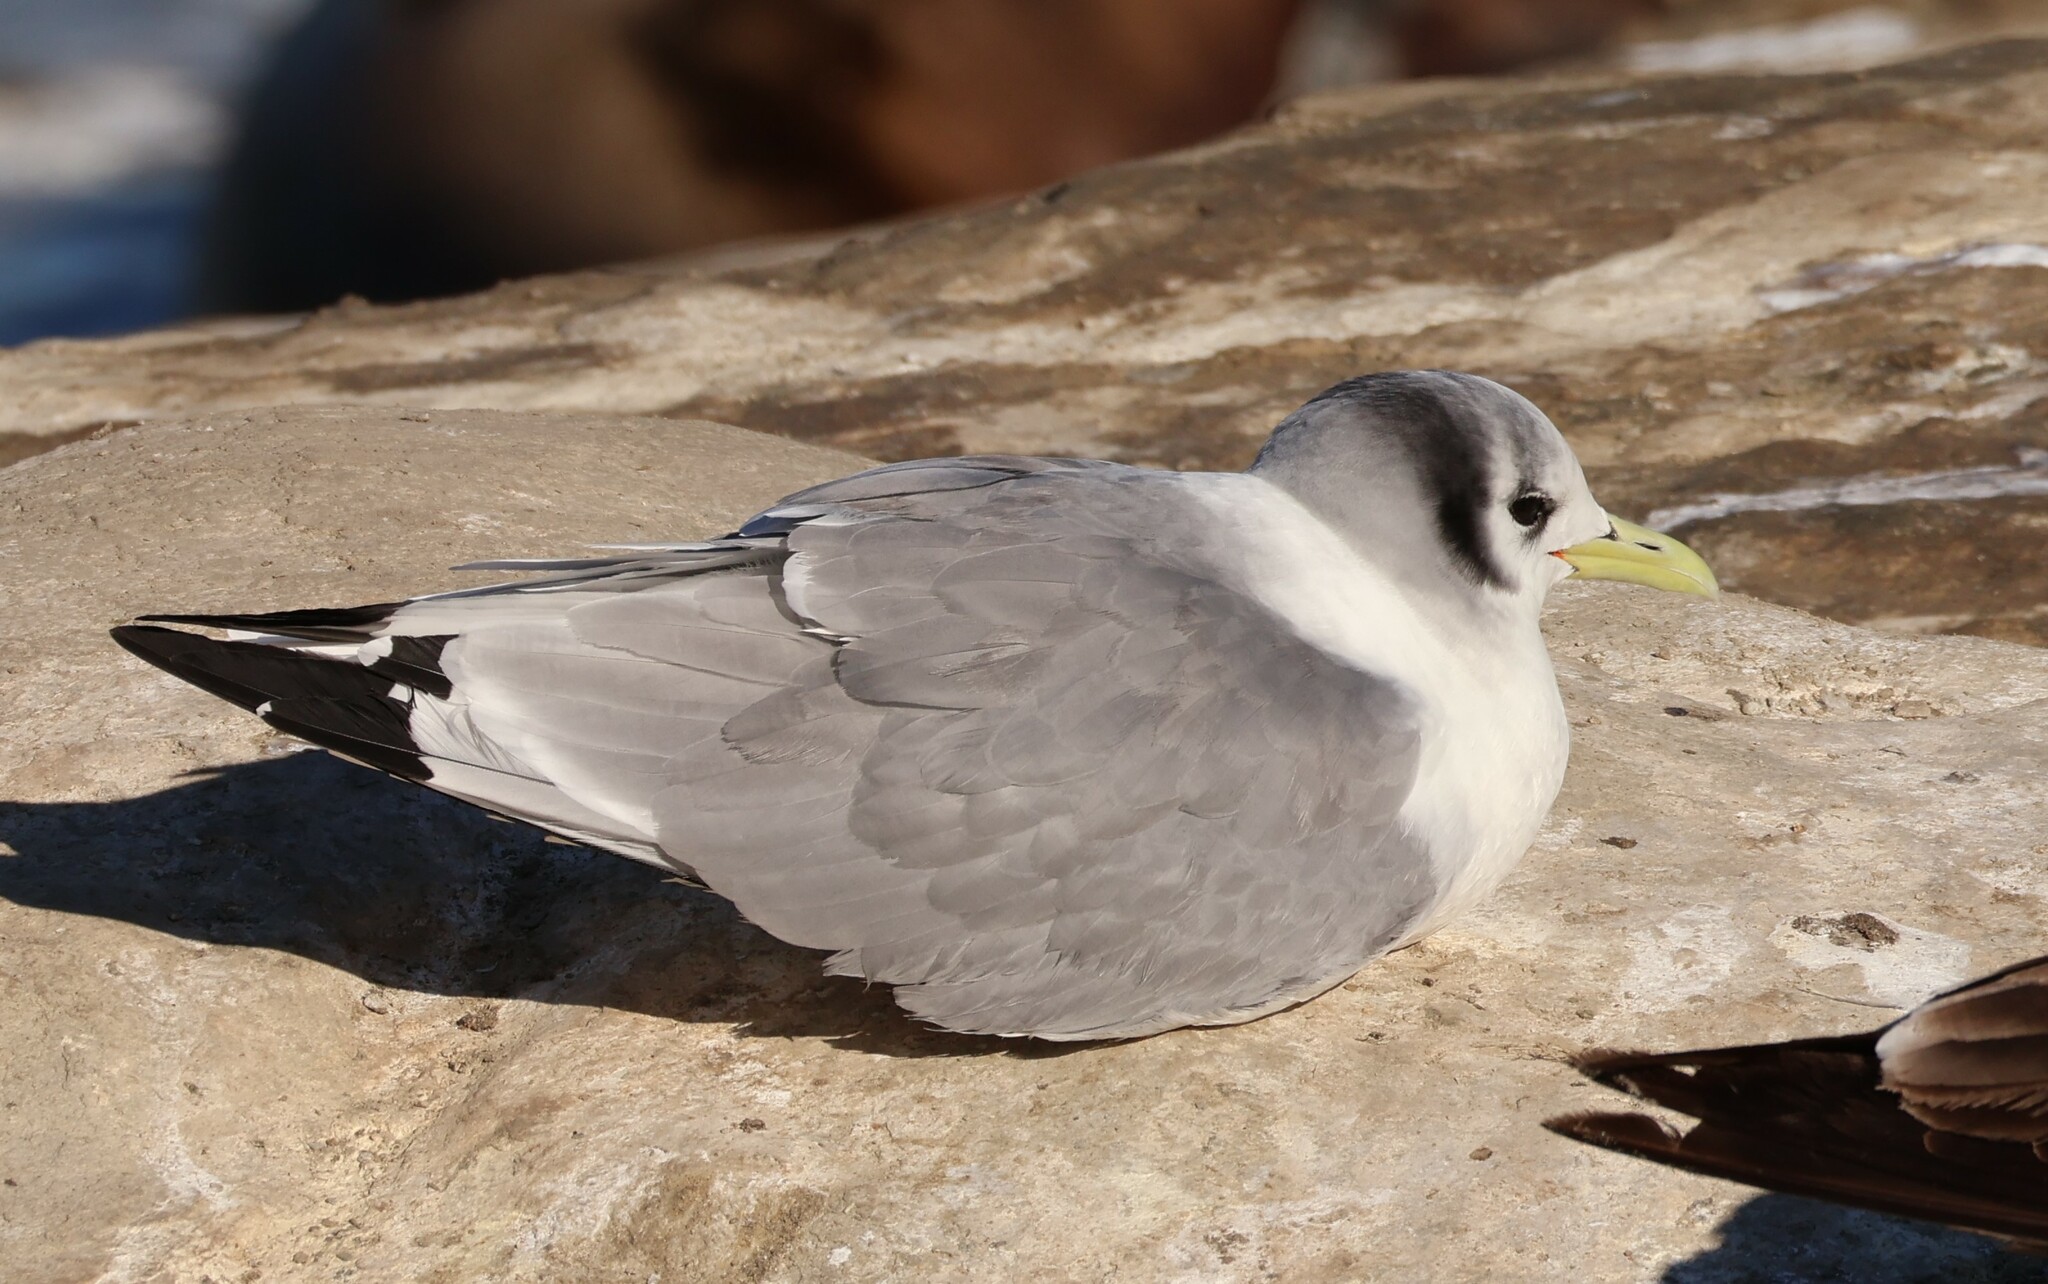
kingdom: Animalia
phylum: Chordata
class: Aves
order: Charadriiformes
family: Laridae
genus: Rissa
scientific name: Rissa tridactyla
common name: Black-legged kittiwake
